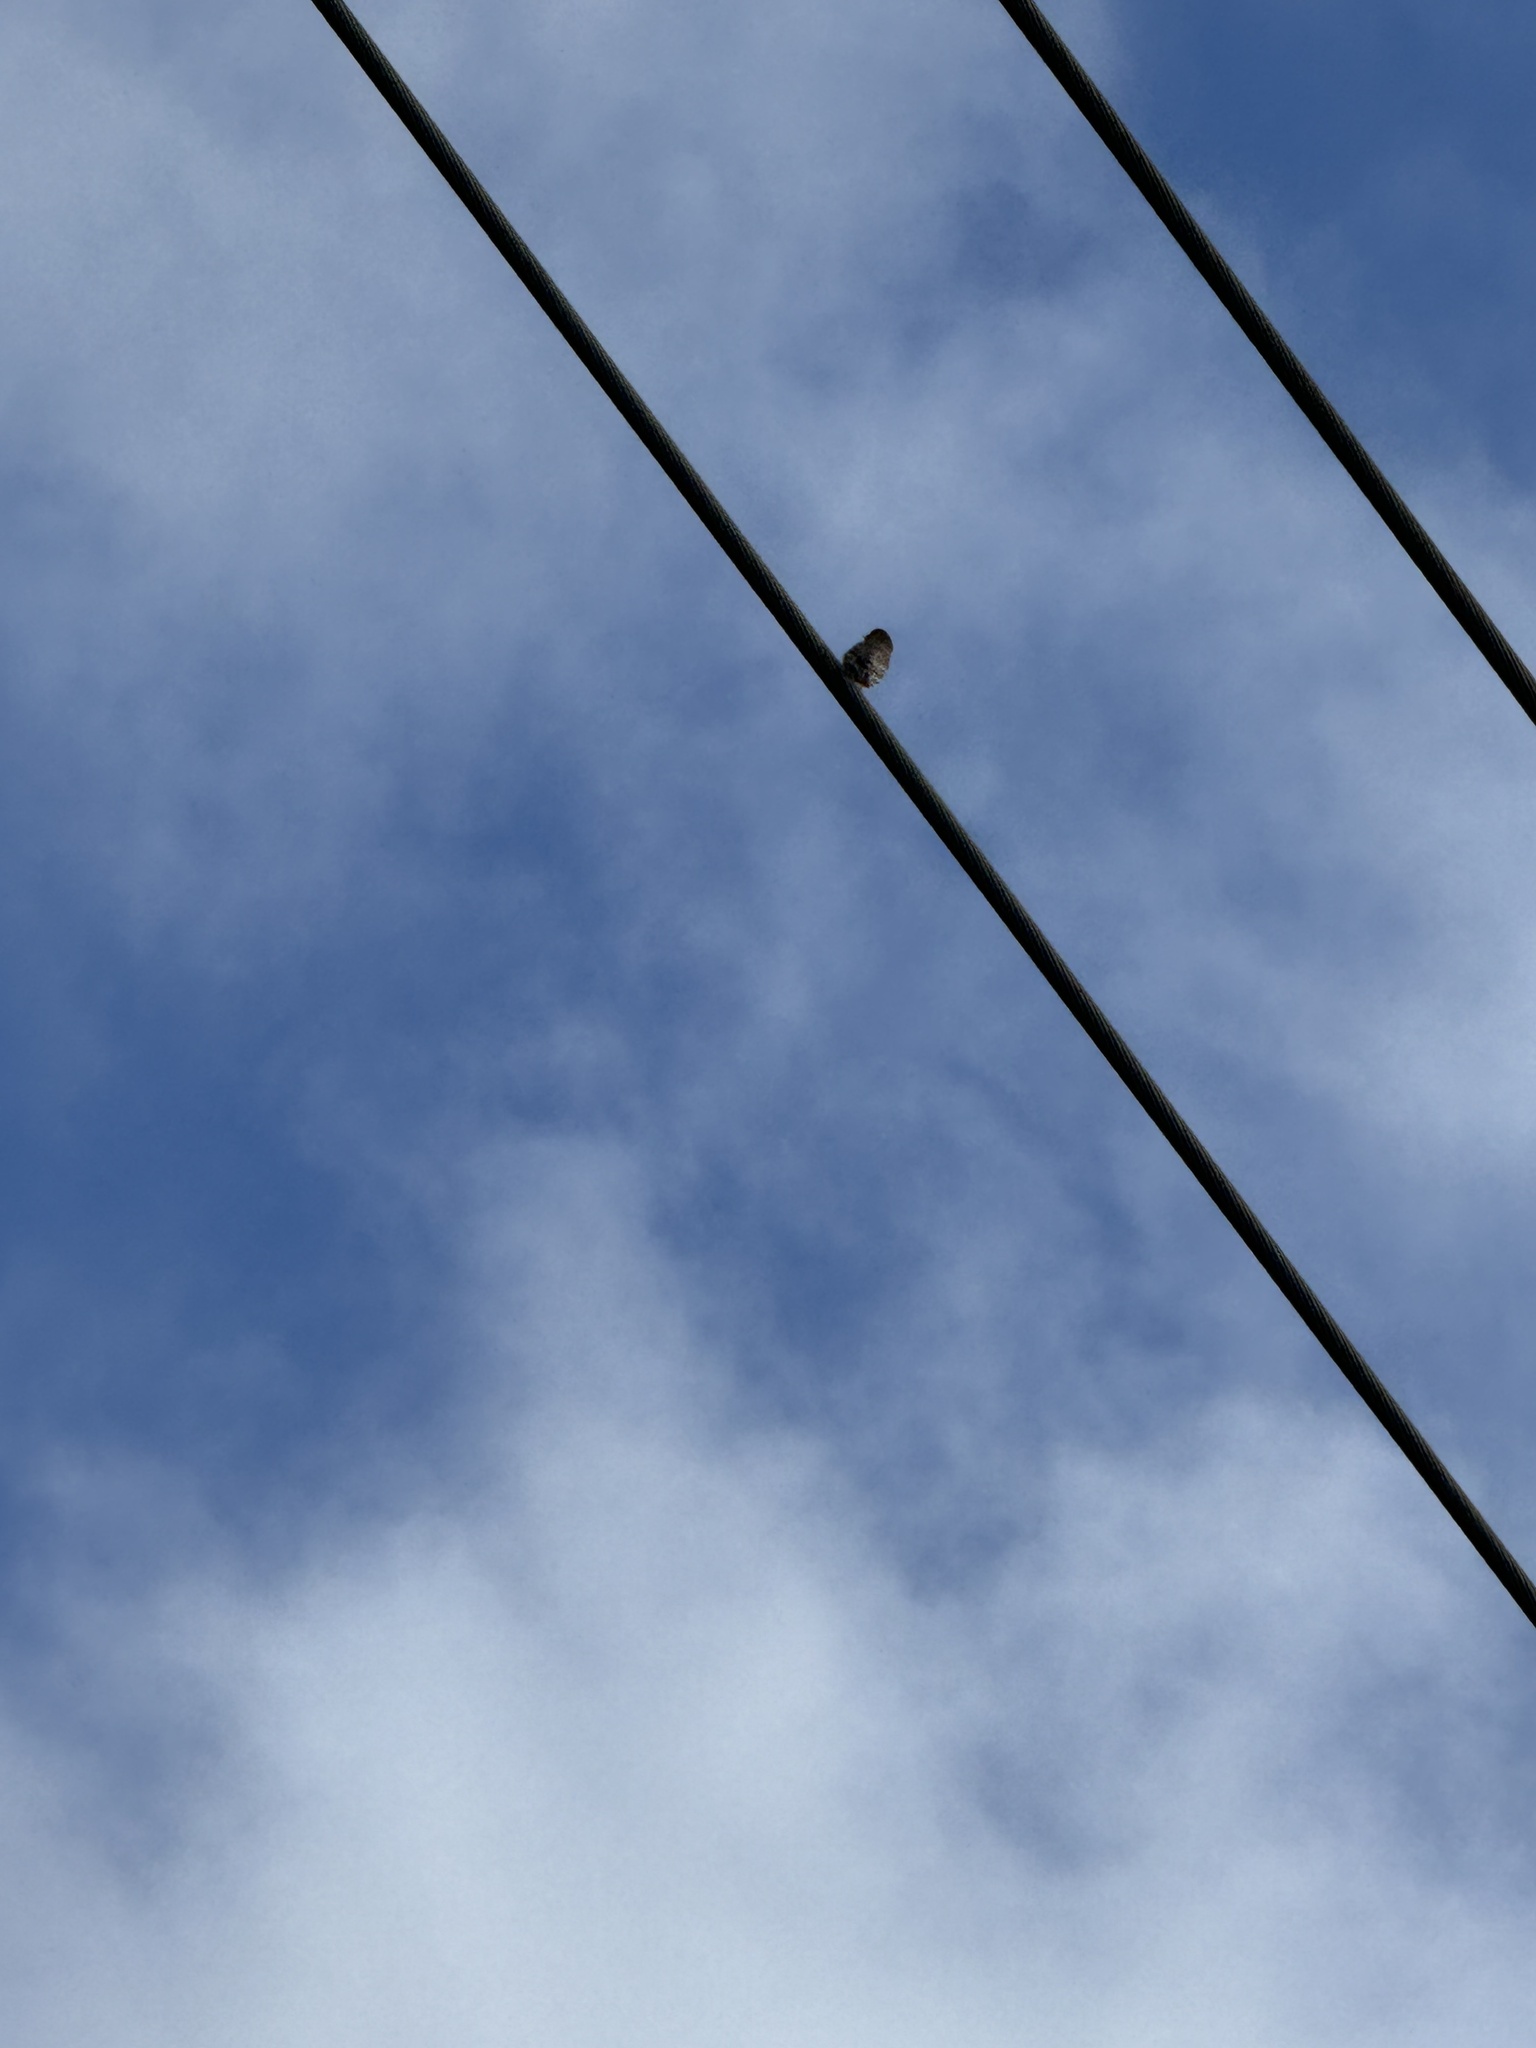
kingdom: Animalia
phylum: Chordata
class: Aves
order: Passeriformes
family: Fringillidae
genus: Haemorhous
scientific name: Haemorhous mexicanus
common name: House finch
